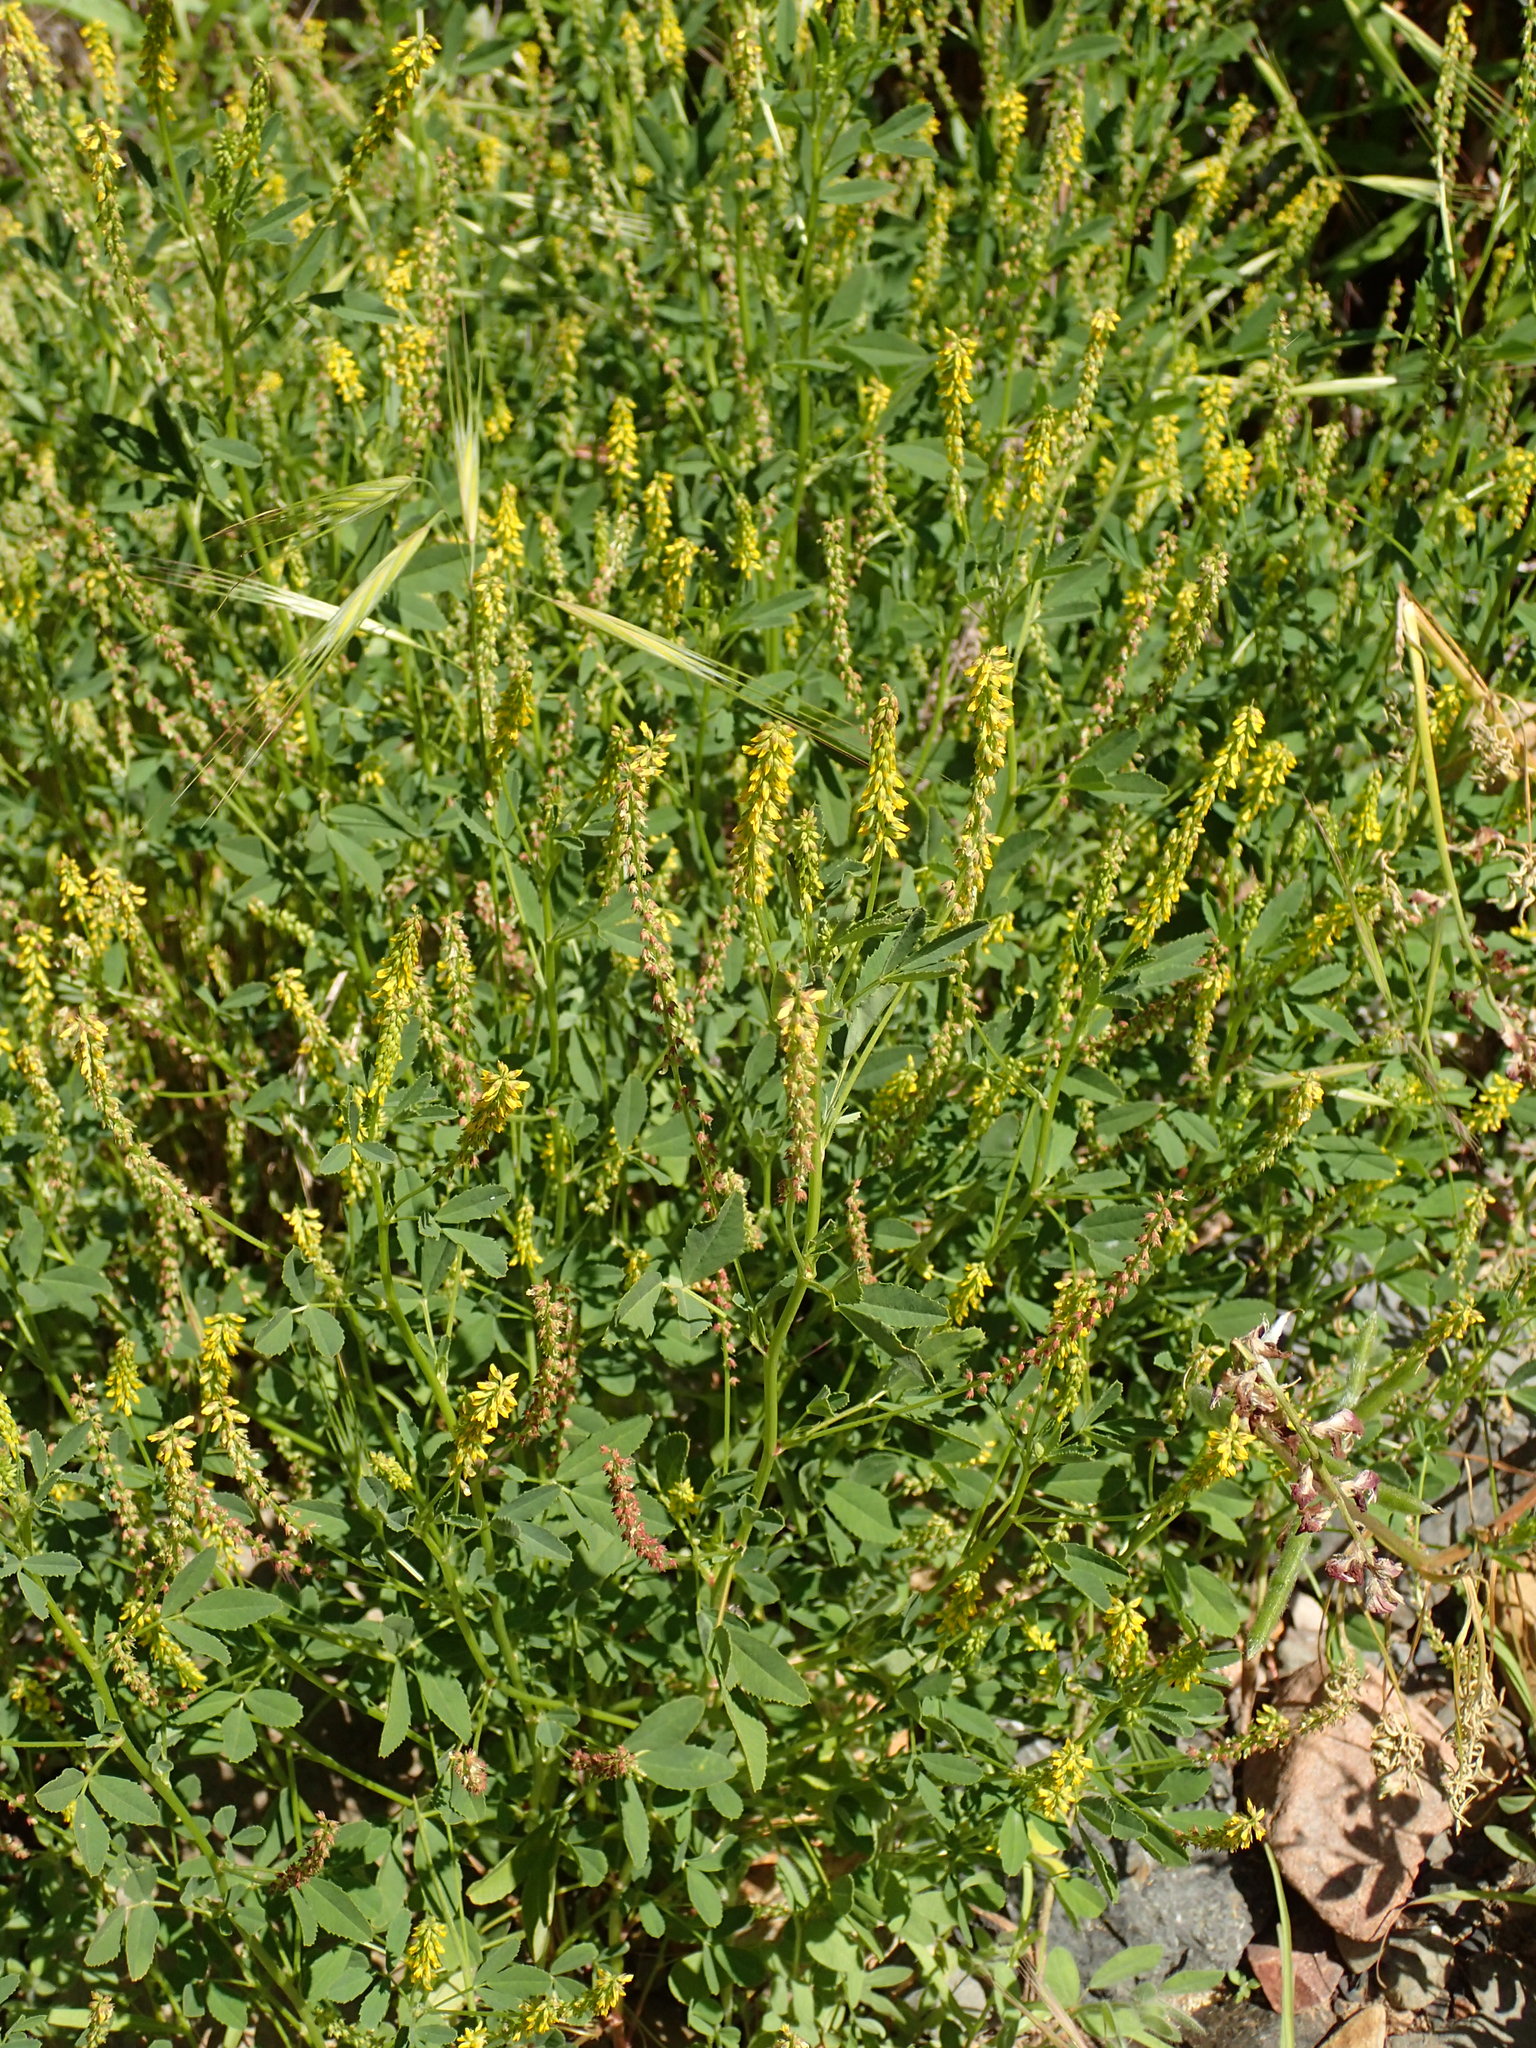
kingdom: Plantae
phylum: Tracheophyta
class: Magnoliopsida
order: Fabales
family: Fabaceae
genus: Melilotus
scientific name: Melilotus indicus
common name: Small melilot
